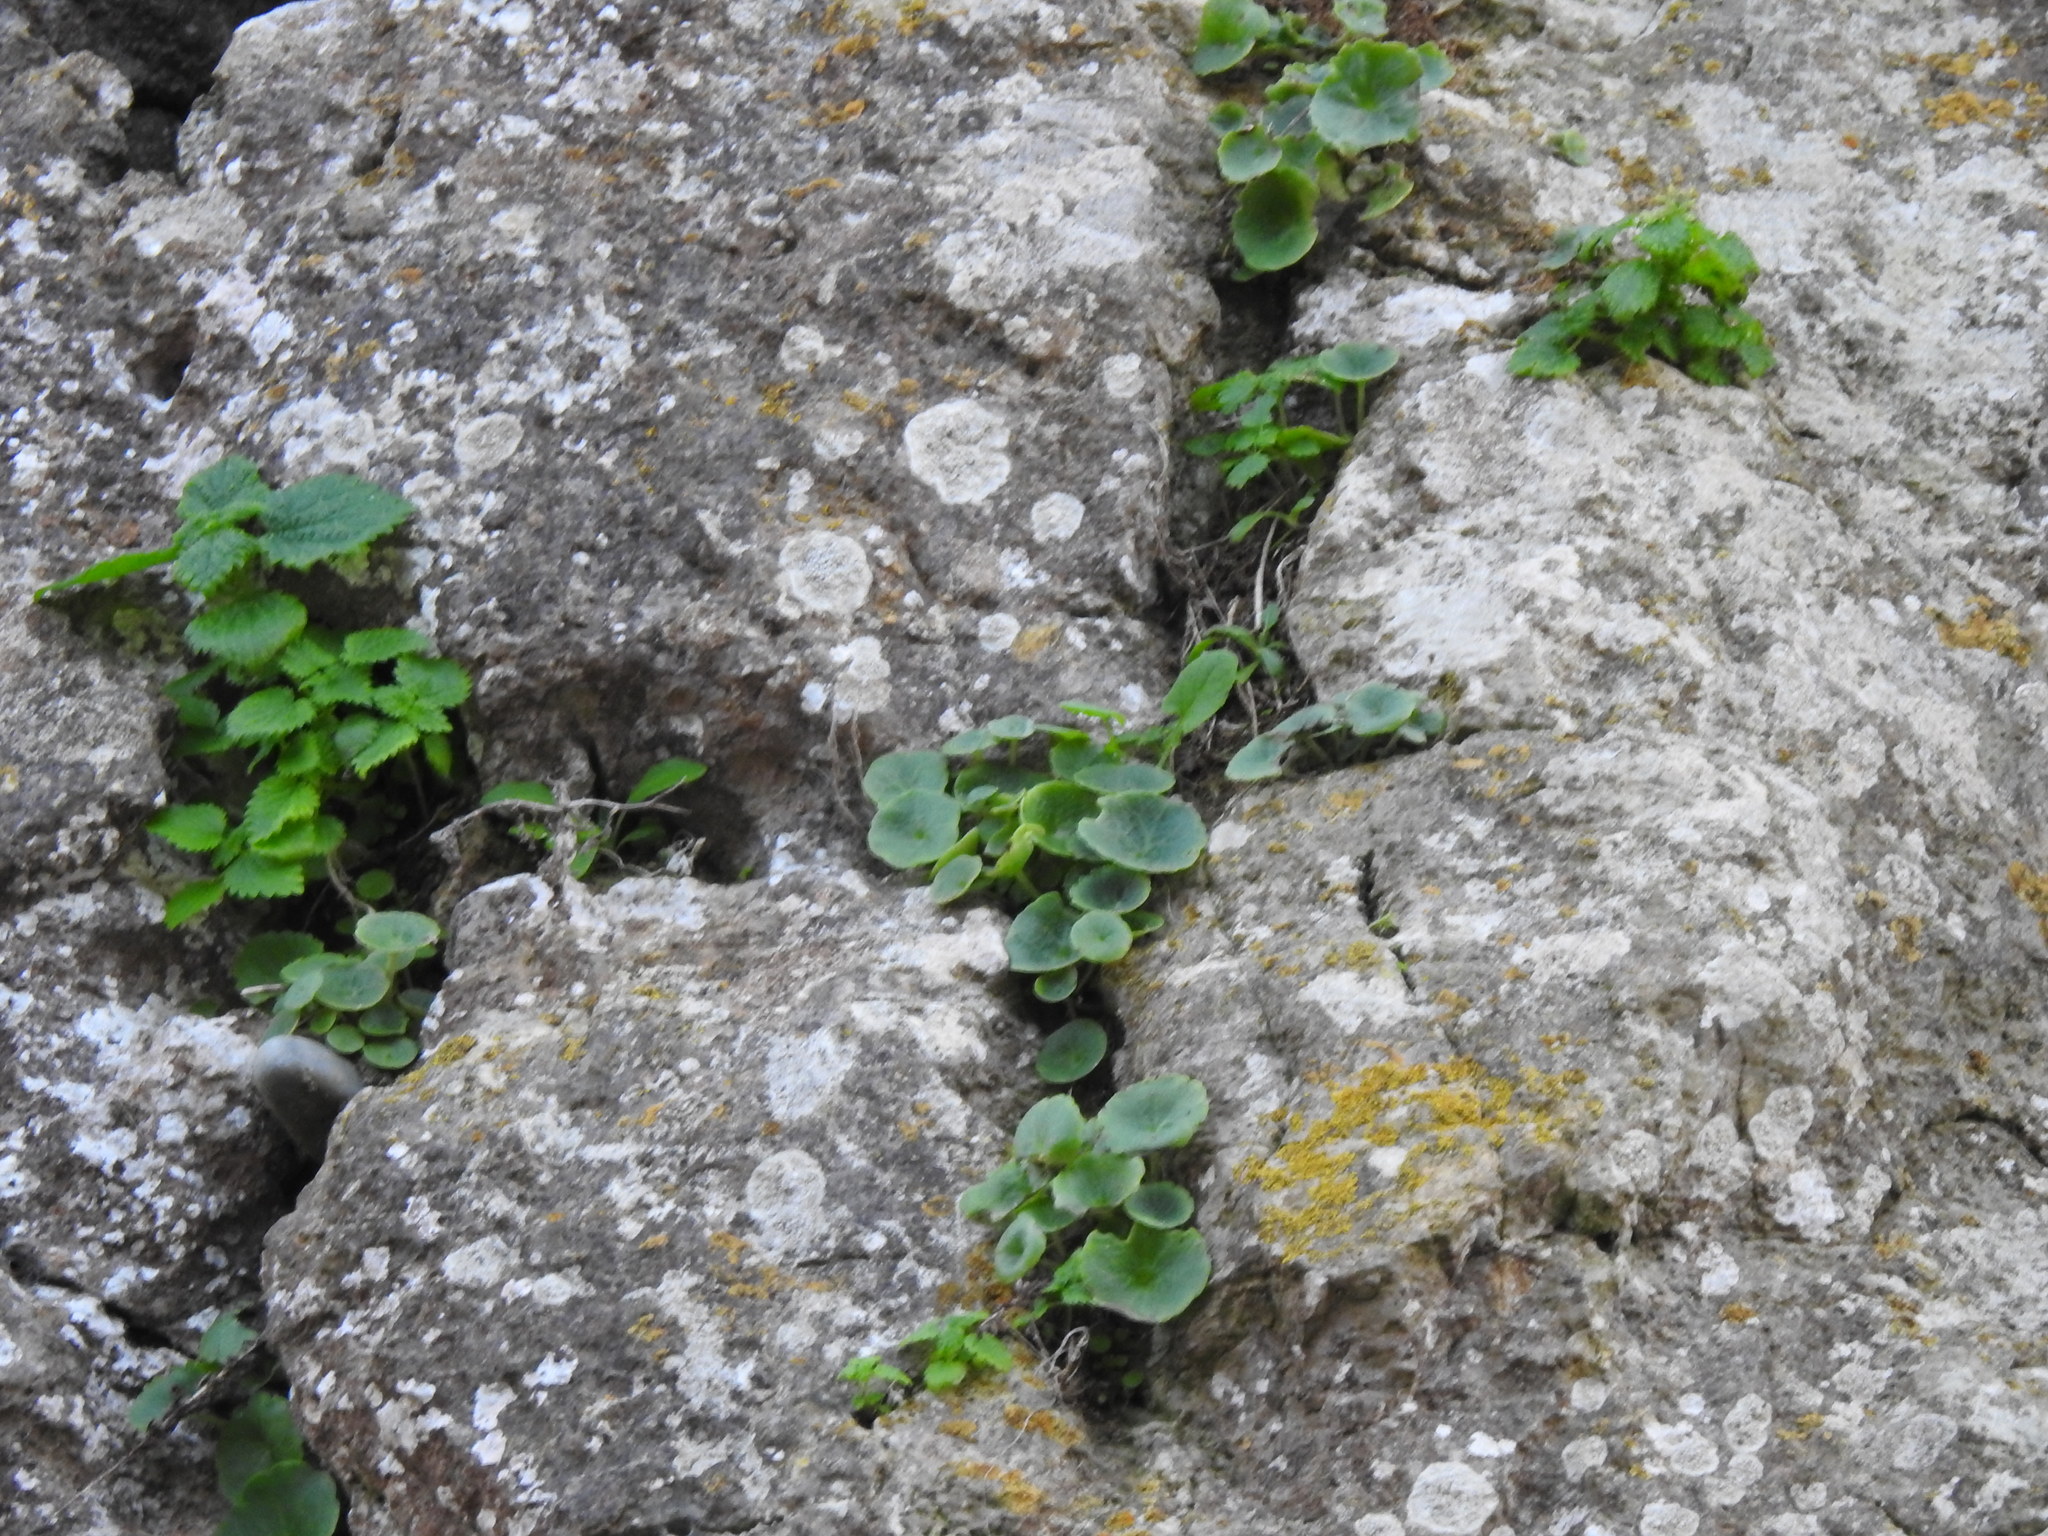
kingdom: Plantae
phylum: Tracheophyta
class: Magnoliopsida
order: Saxifragales
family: Crassulaceae
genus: Umbilicus
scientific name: Umbilicus rupestris
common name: Navelwort
